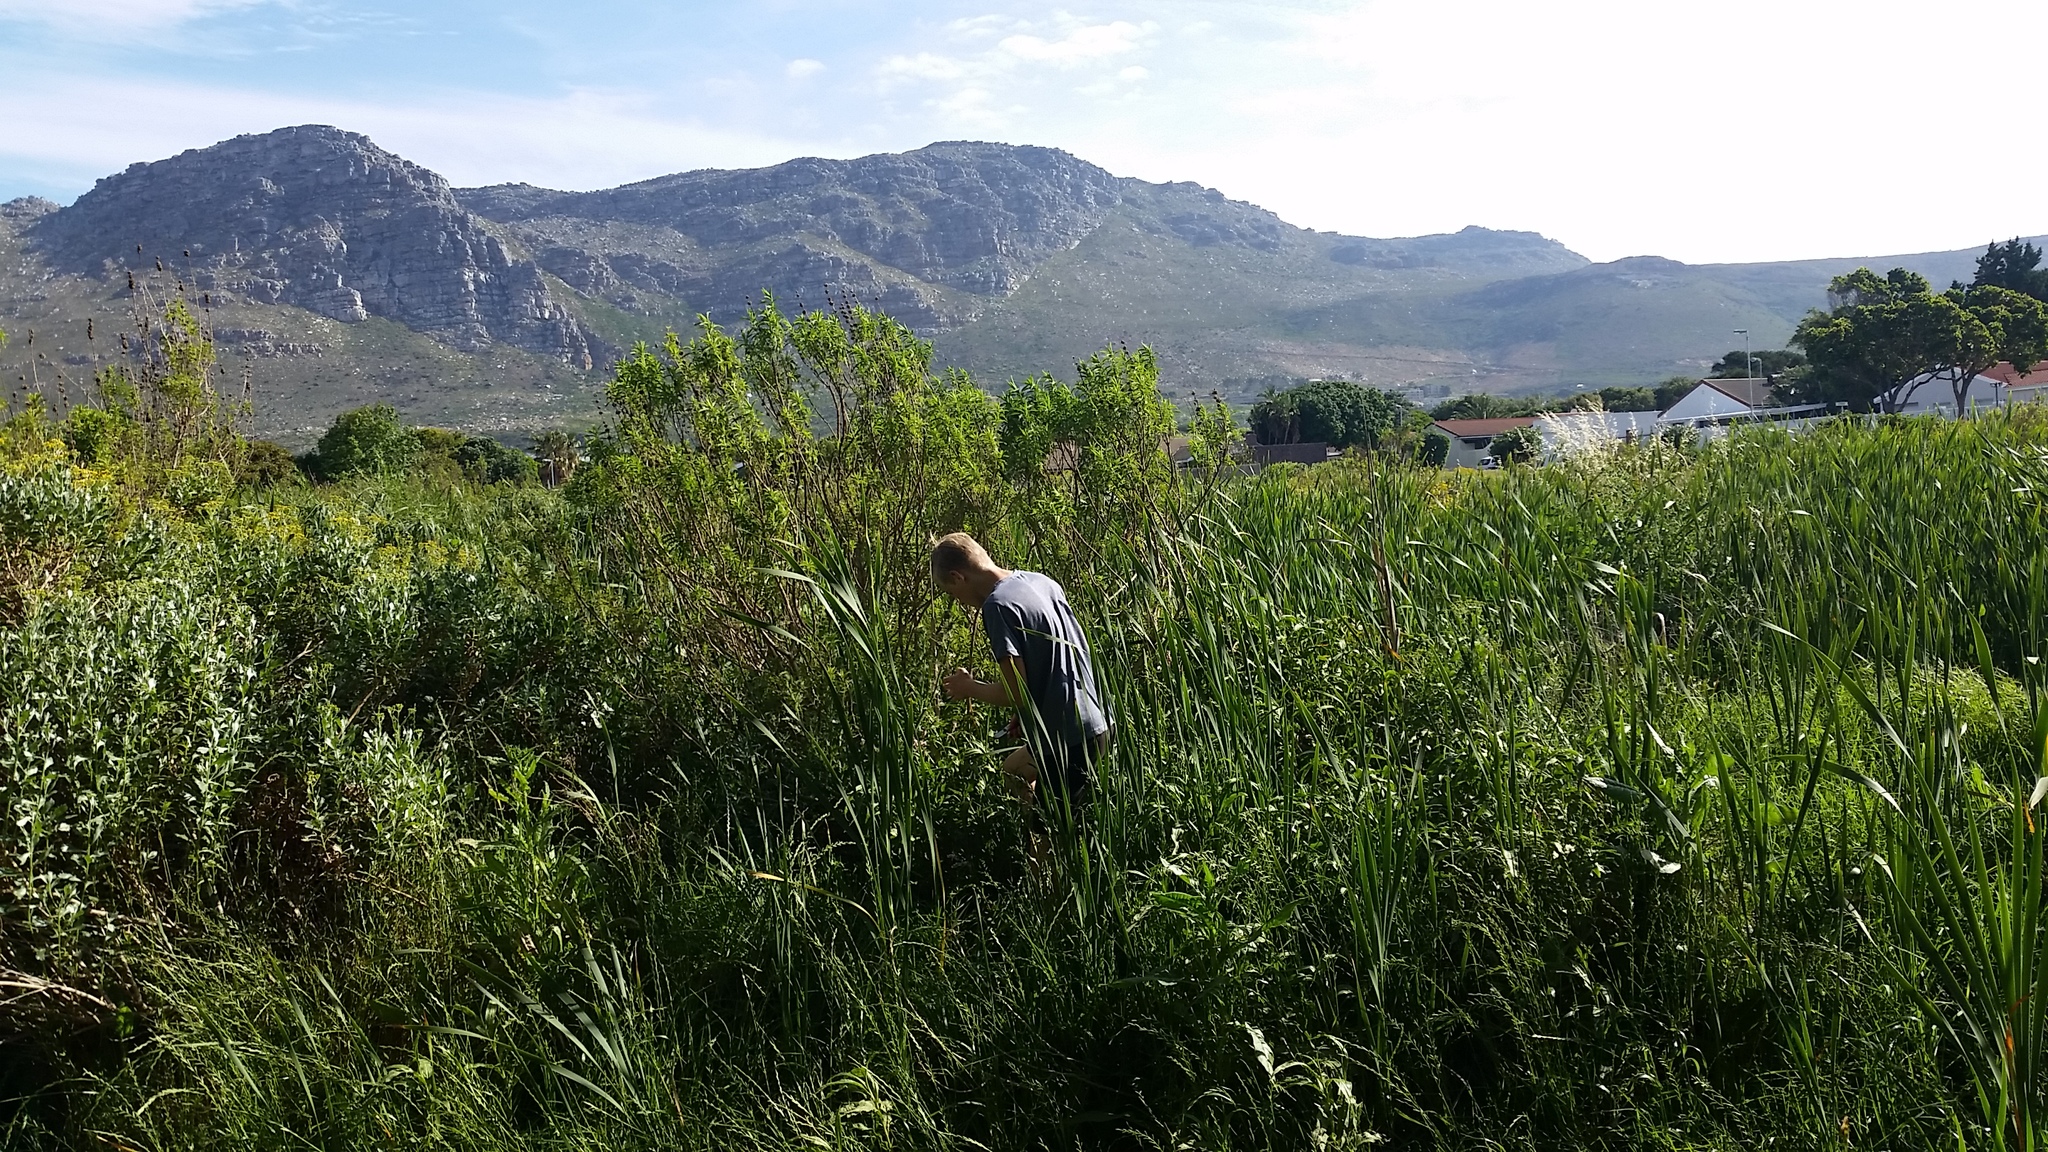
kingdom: Plantae
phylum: Tracheophyta
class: Magnoliopsida
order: Asterales
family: Asteraceae
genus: Cirsium
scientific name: Cirsium vulgare
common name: Bull thistle
